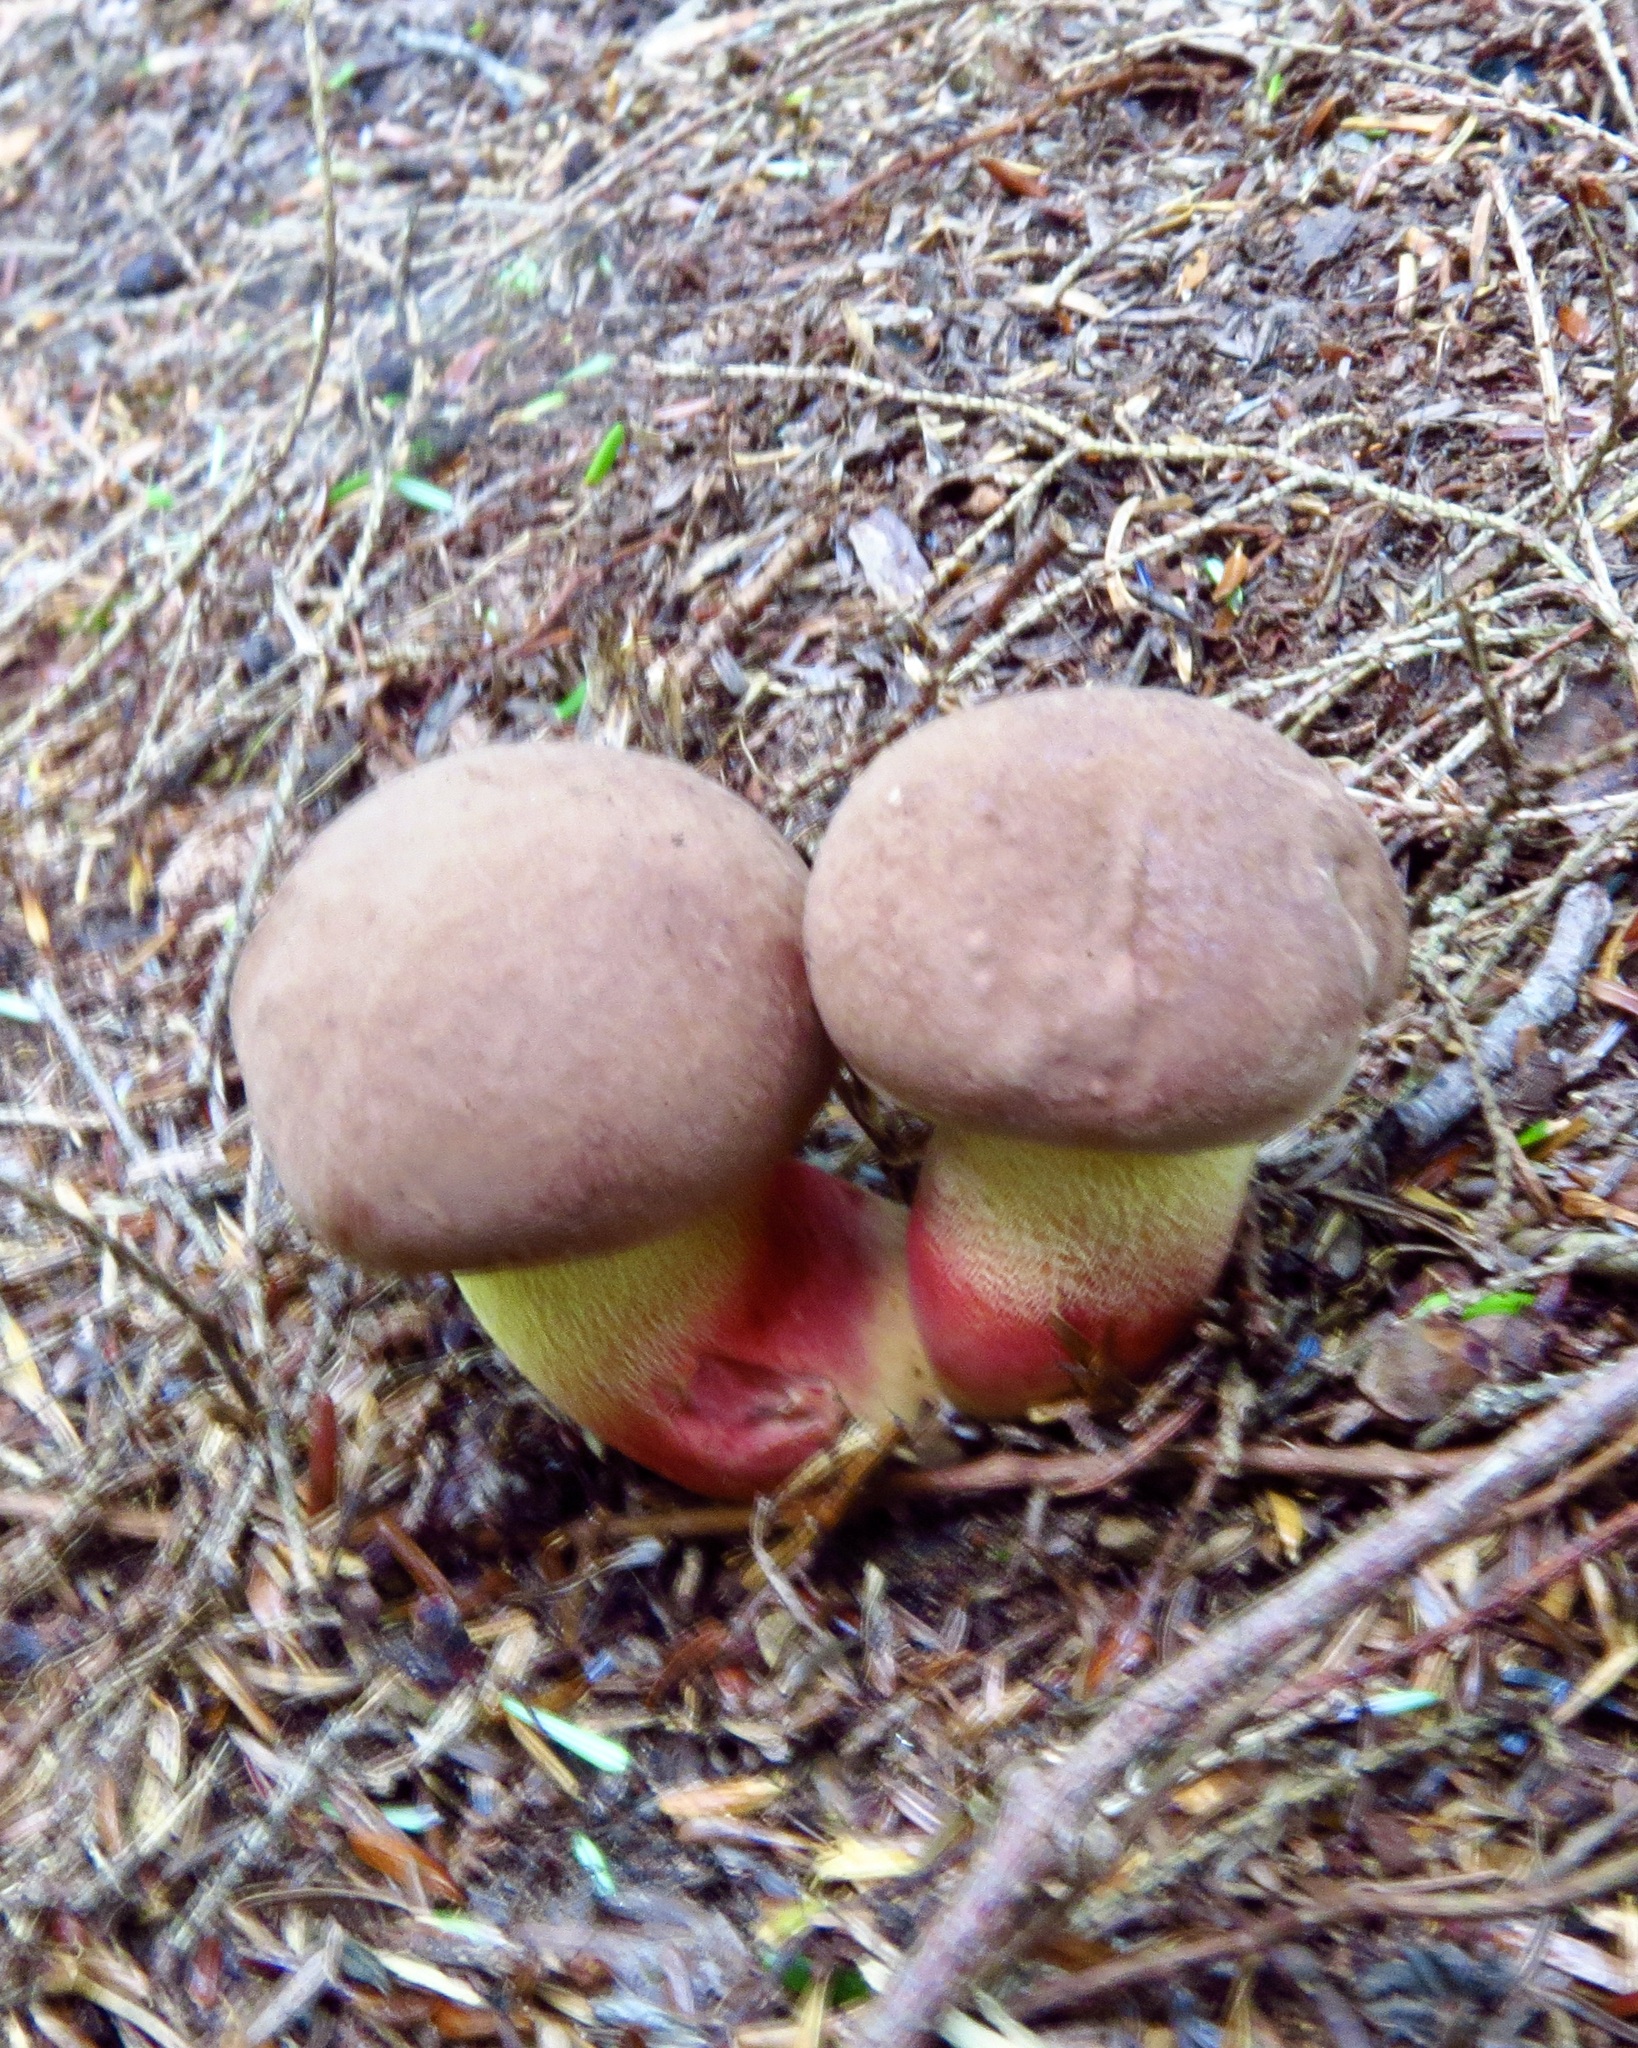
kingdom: Fungi
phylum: Basidiomycota
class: Agaricomycetes
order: Boletales
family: Boletaceae
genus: Butyriboletus
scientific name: Butyriboletus brunneus
